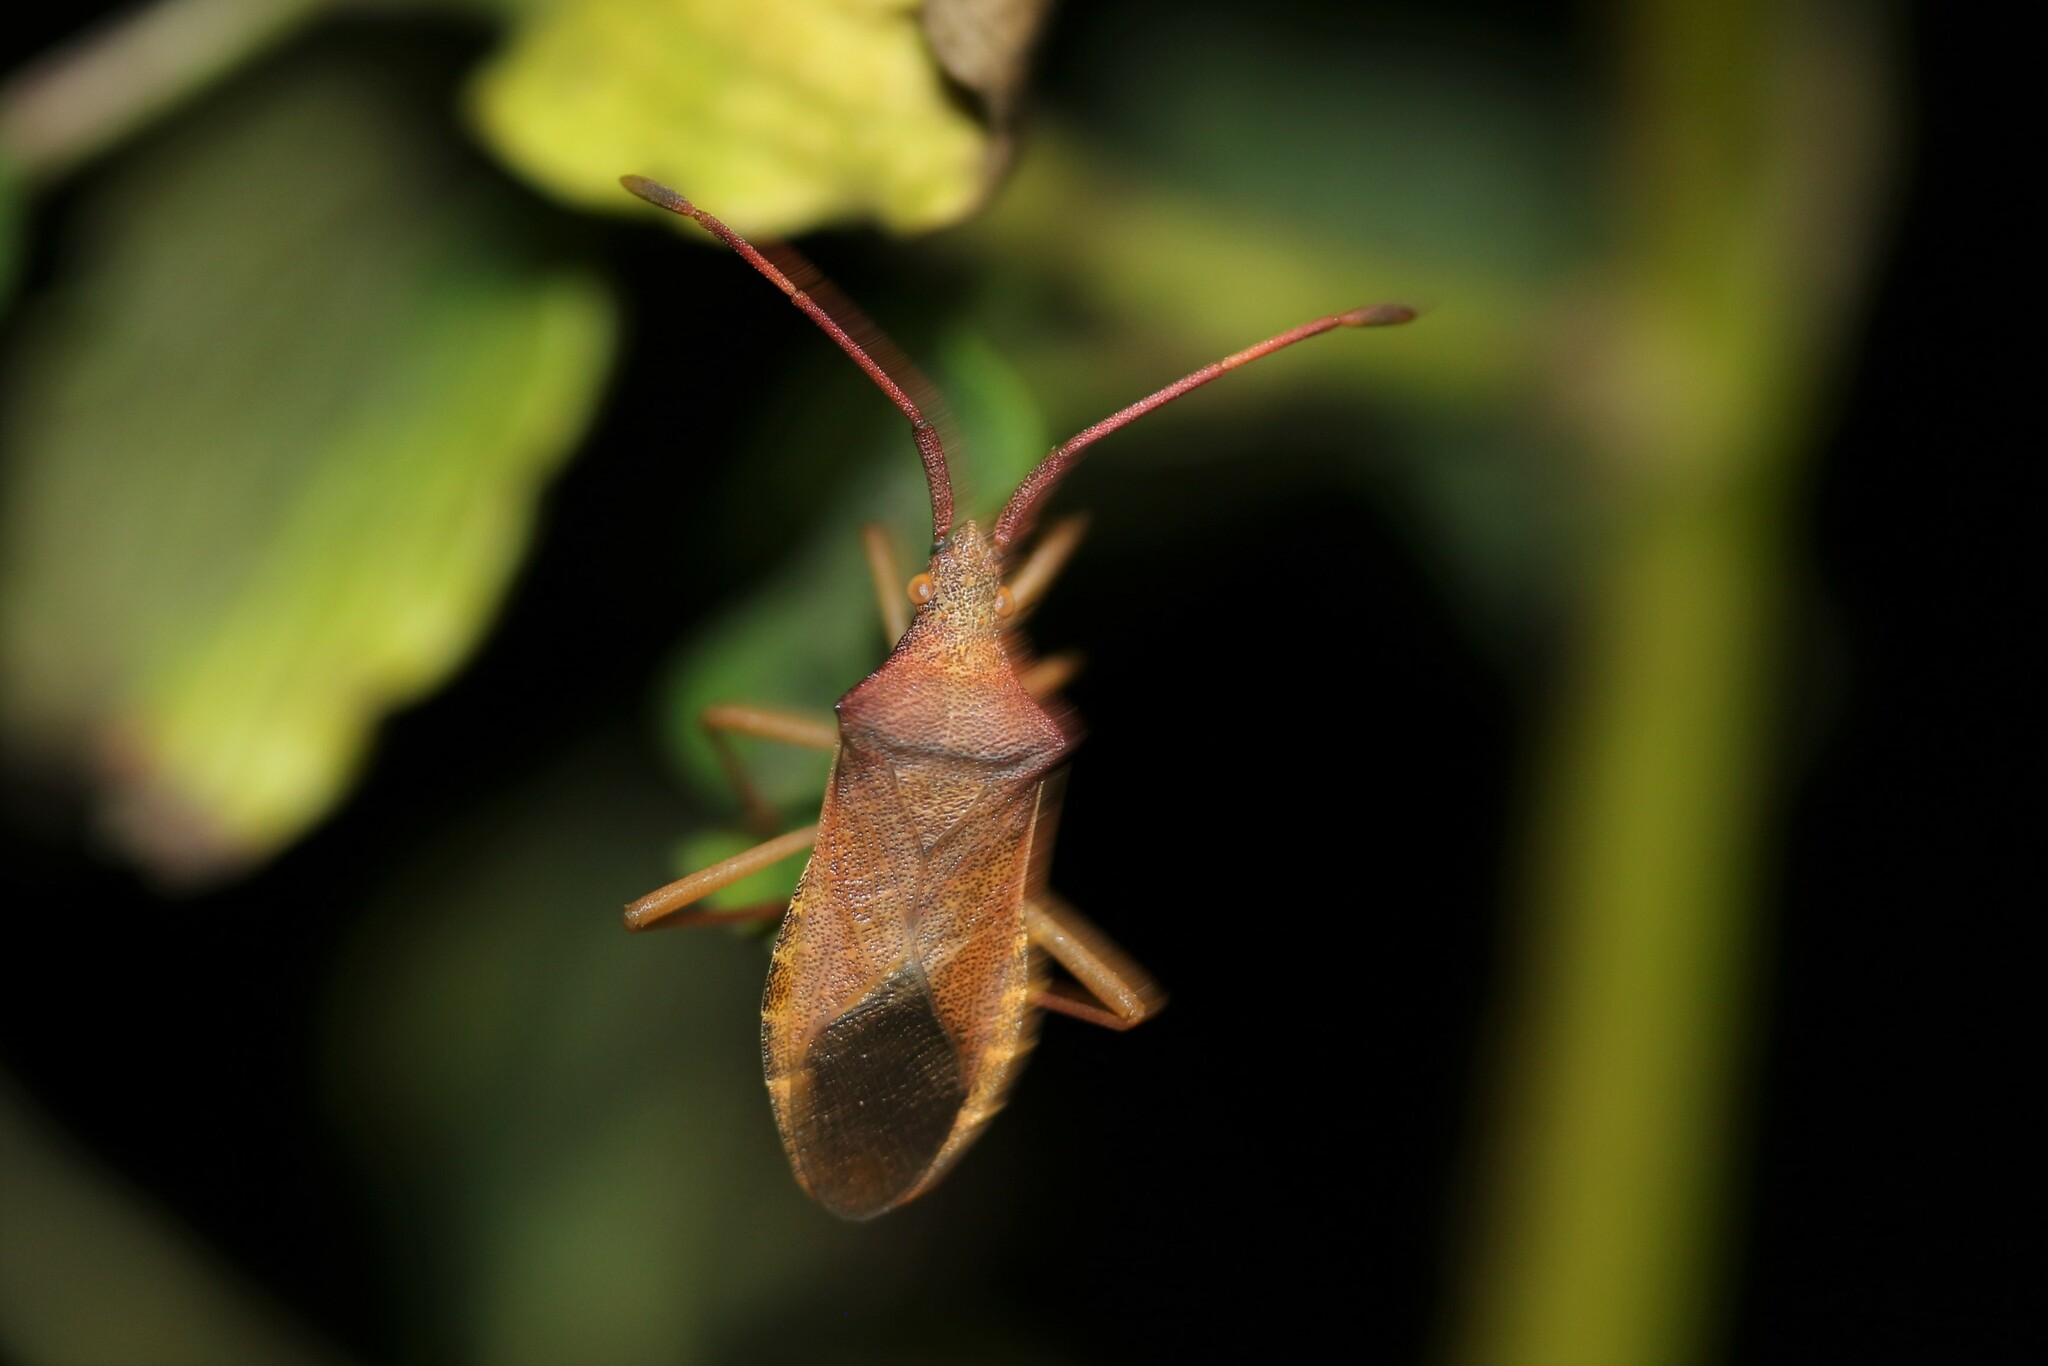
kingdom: Animalia
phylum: Arthropoda
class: Insecta
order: Hemiptera
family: Coreidae
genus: Gonocerus
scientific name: Gonocerus acuteangulatus
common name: Box bug
